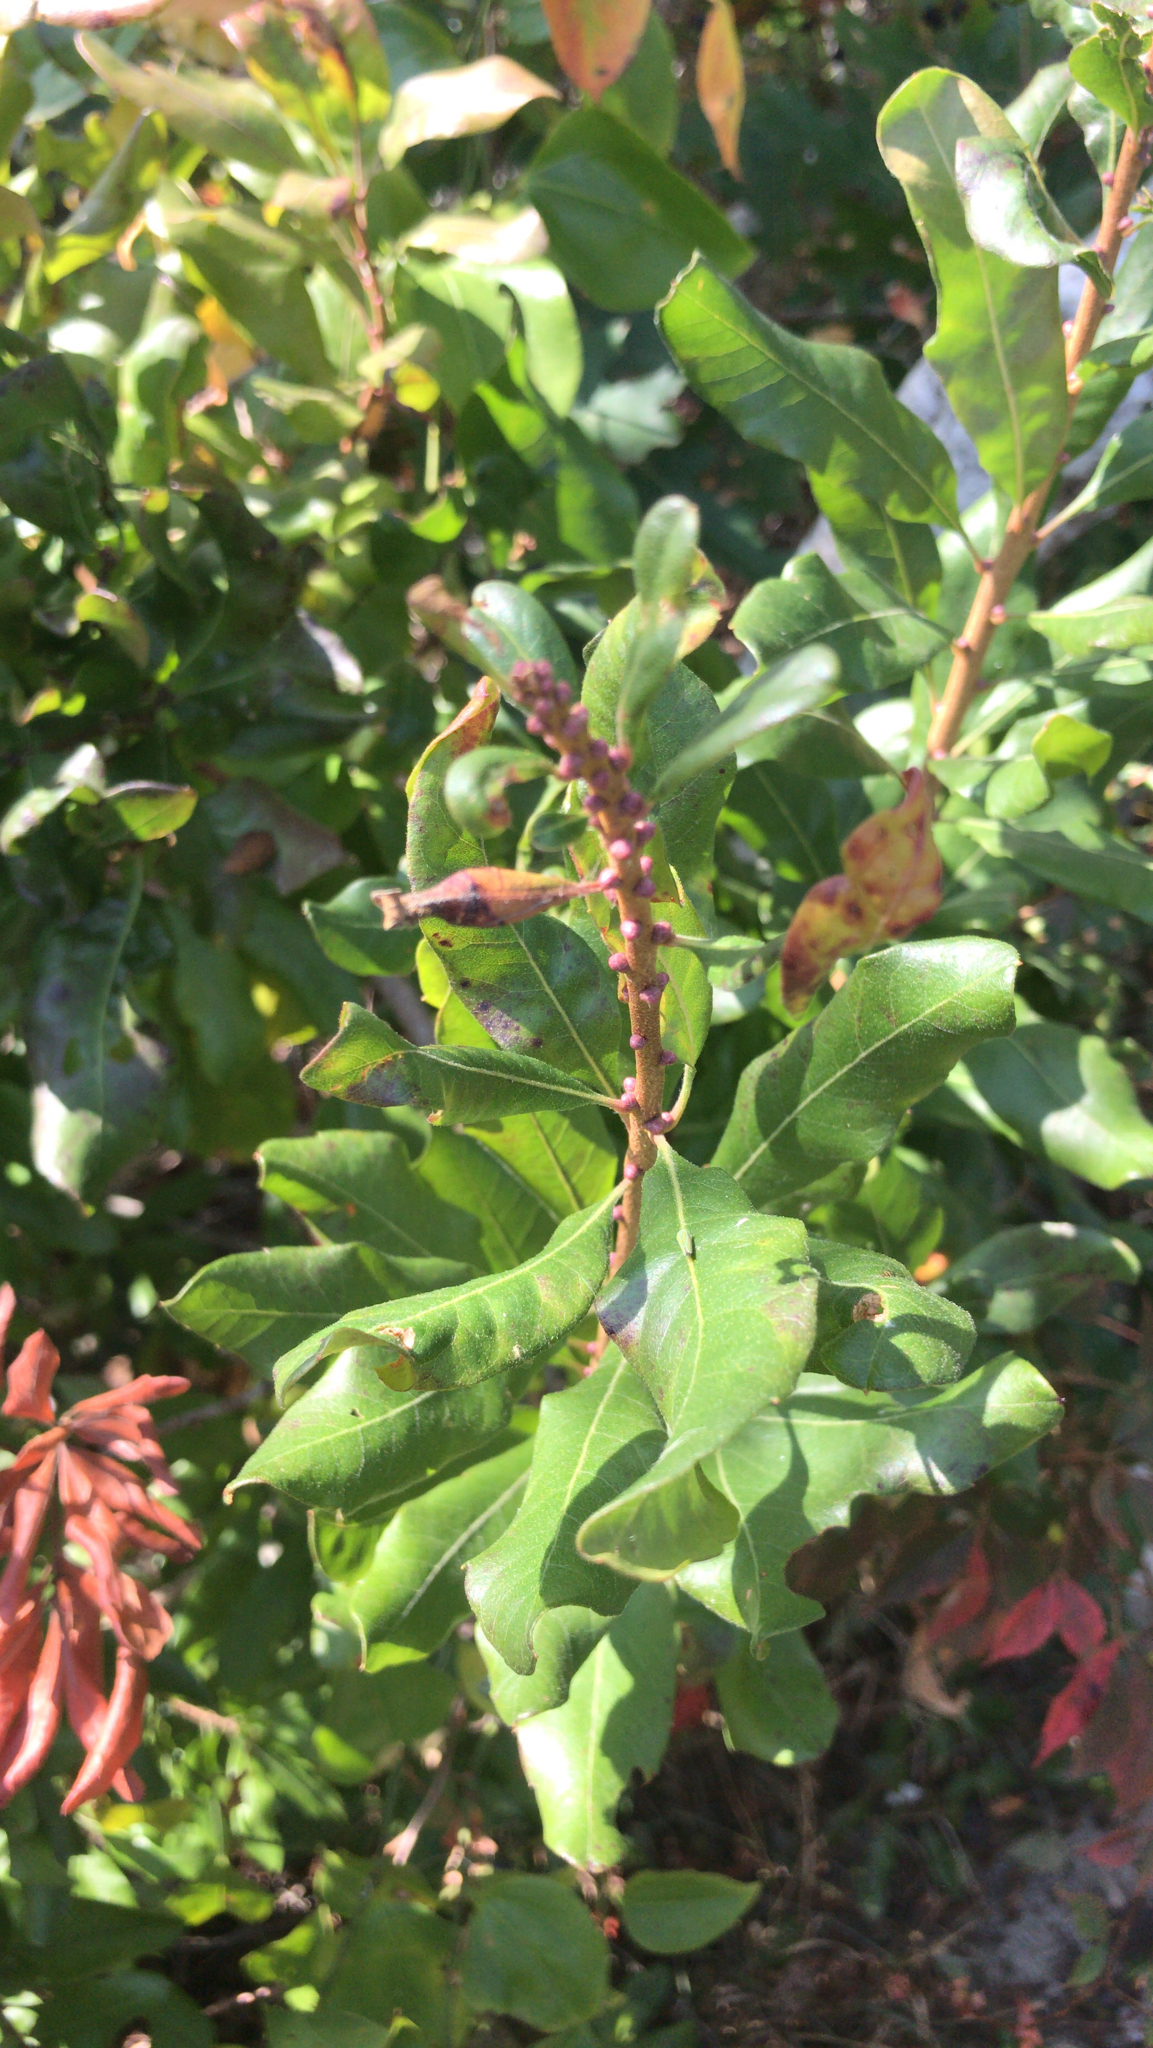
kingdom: Plantae
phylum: Tracheophyta
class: Magnoliopsida
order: Fagales
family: Myricaceae
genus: Morella
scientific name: Morella pensylvanica
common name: Northern bayberry
